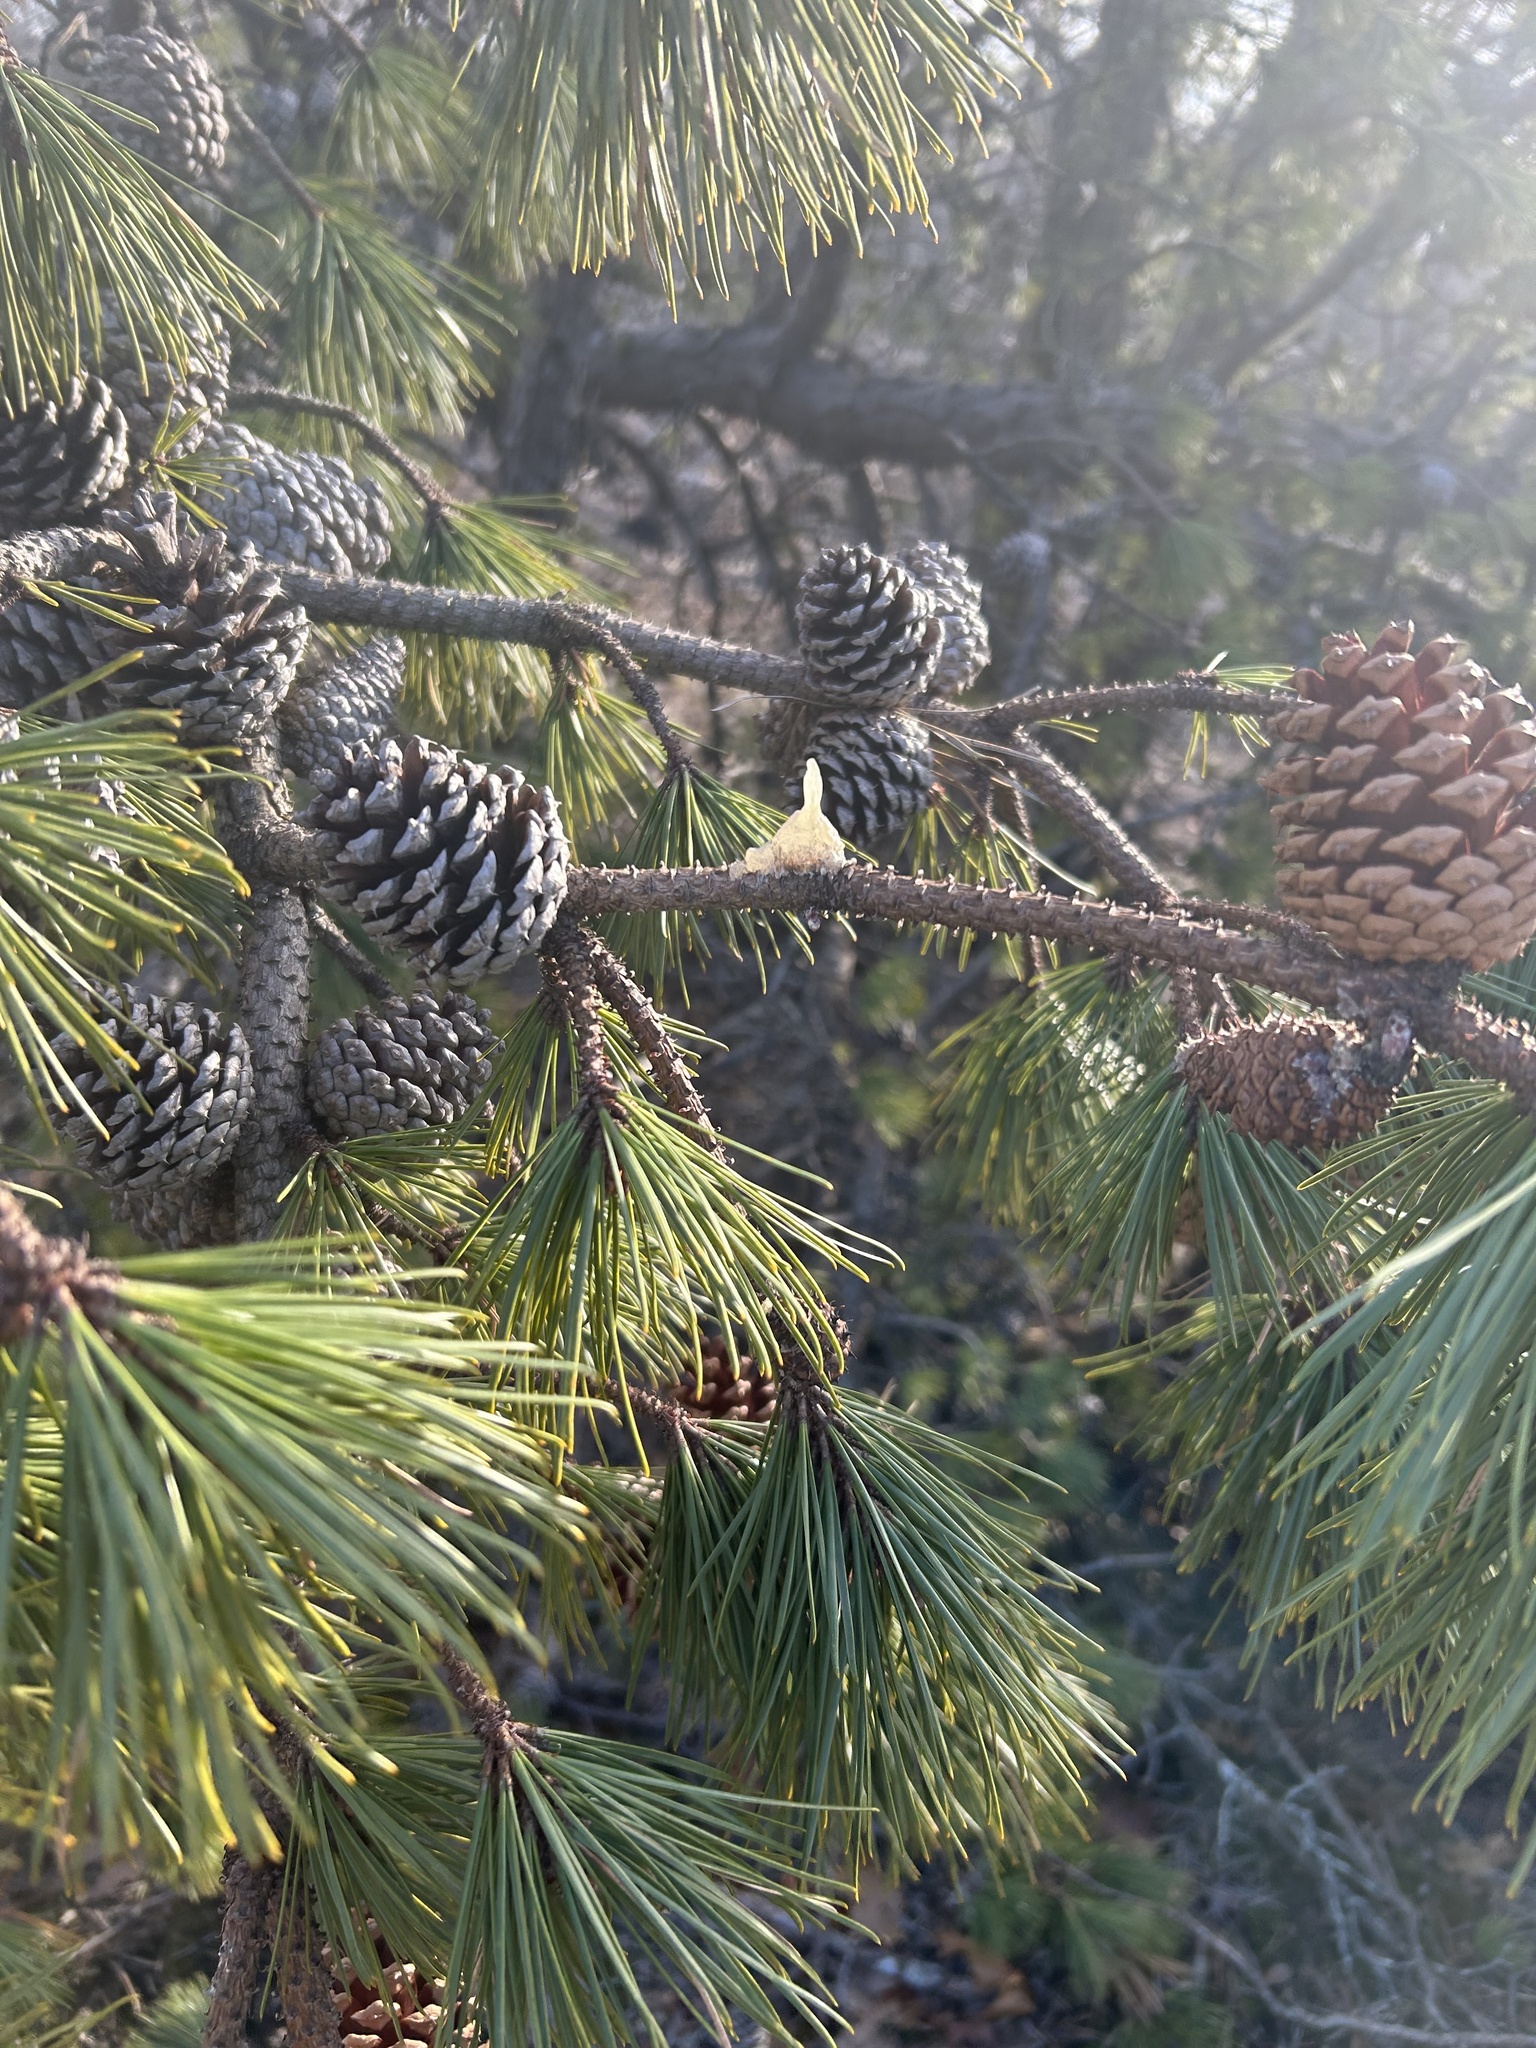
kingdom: Plantae
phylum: Tracheophyta
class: Pinopsida
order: Pinales
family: Pinaceae
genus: Pinus
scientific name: Pinus rigida
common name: Pitch pine
